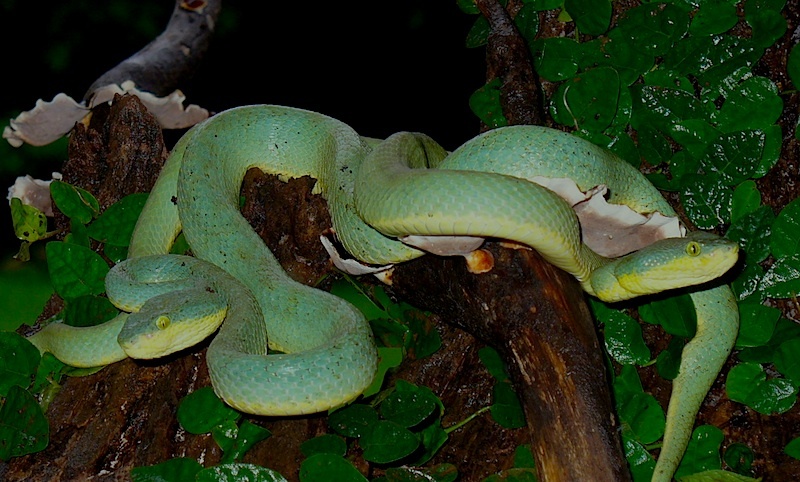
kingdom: Animalia
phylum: Chordata
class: Squamata
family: Viperidae
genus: Craspedocephalus
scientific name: Craspedocephalus gramineus
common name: Common bamboo viper
